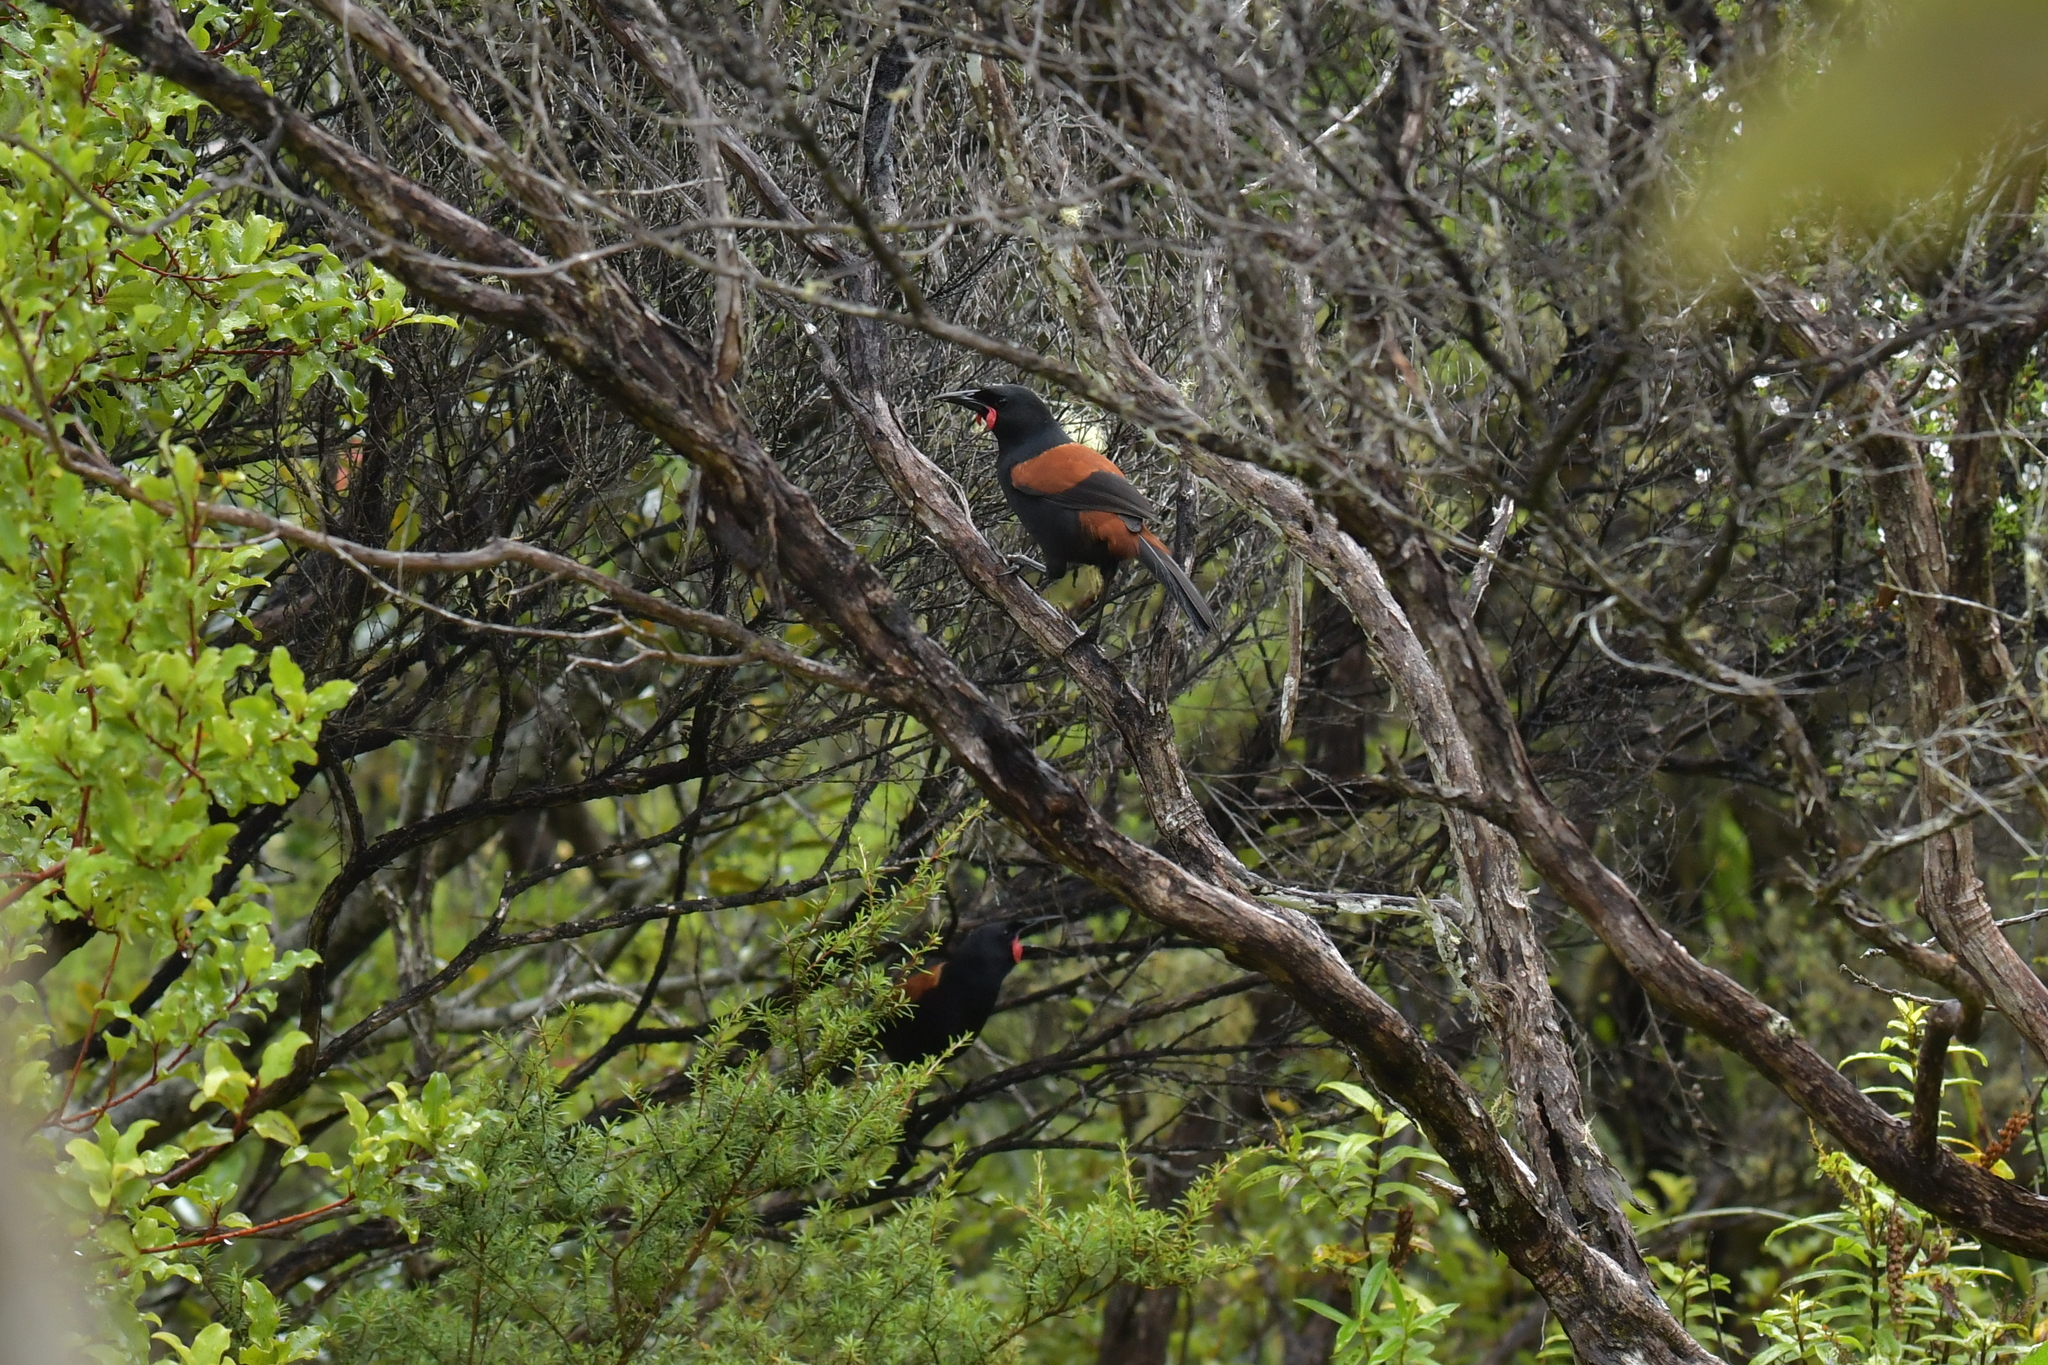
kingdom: Animalia
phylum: Chordata
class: Aves
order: Passeriformes
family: Callaeatidae
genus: Philesturnus
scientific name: Philesturnus carunculatus
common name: South island saddleback
